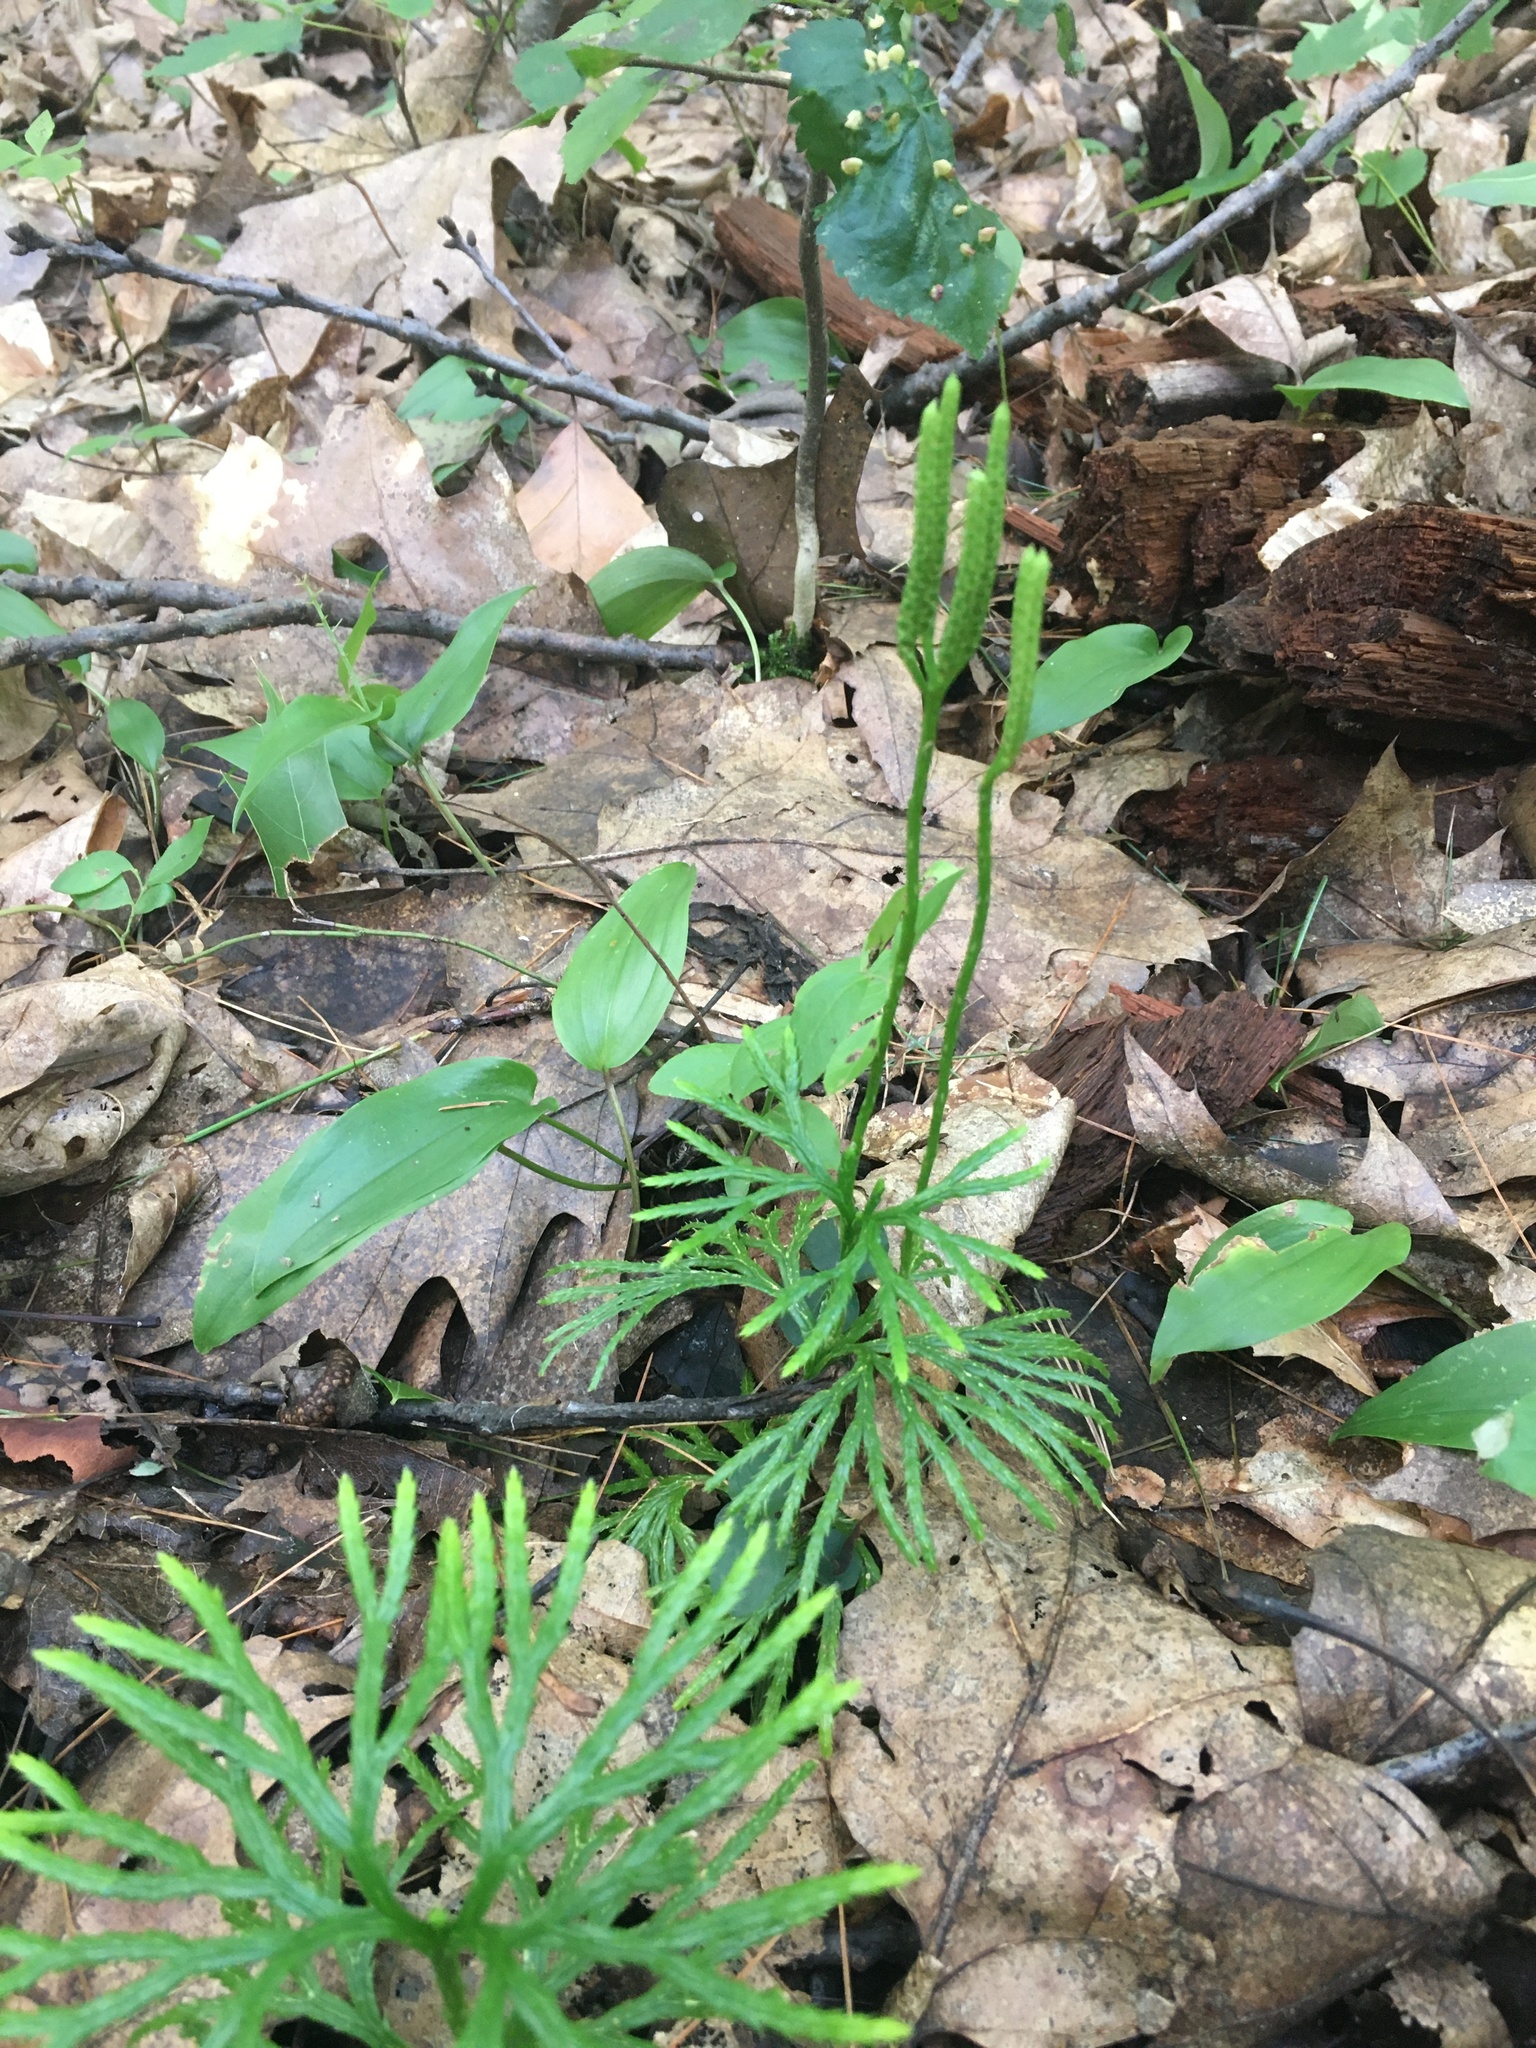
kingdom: Plantae
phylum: Tracheophyta
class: Lycopodiopsida
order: Lycopodiales
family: Lycopodiaceae
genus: Diphasiastrum
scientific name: Diphasiastrum digitatum
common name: Southern running-pine
